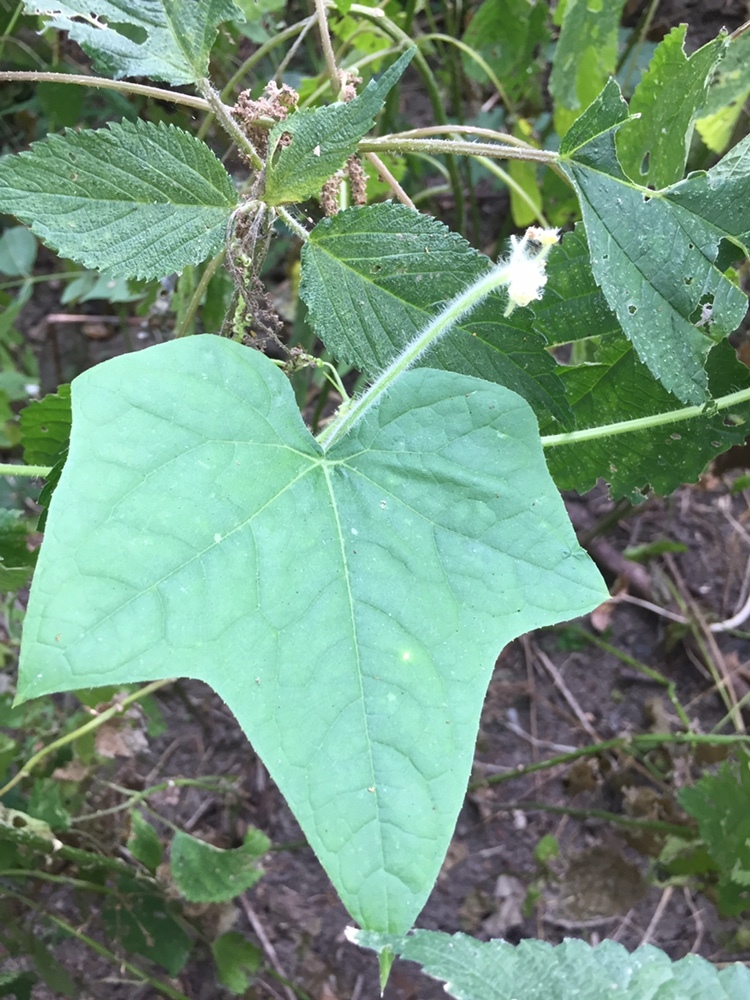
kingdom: Plantae
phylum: Tracheophyta
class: Magnoliopsida
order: Cucurbitales
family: Cucurbitaceae
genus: Sicyos
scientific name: Sicyos angulatus
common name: Angled burr cucumber
